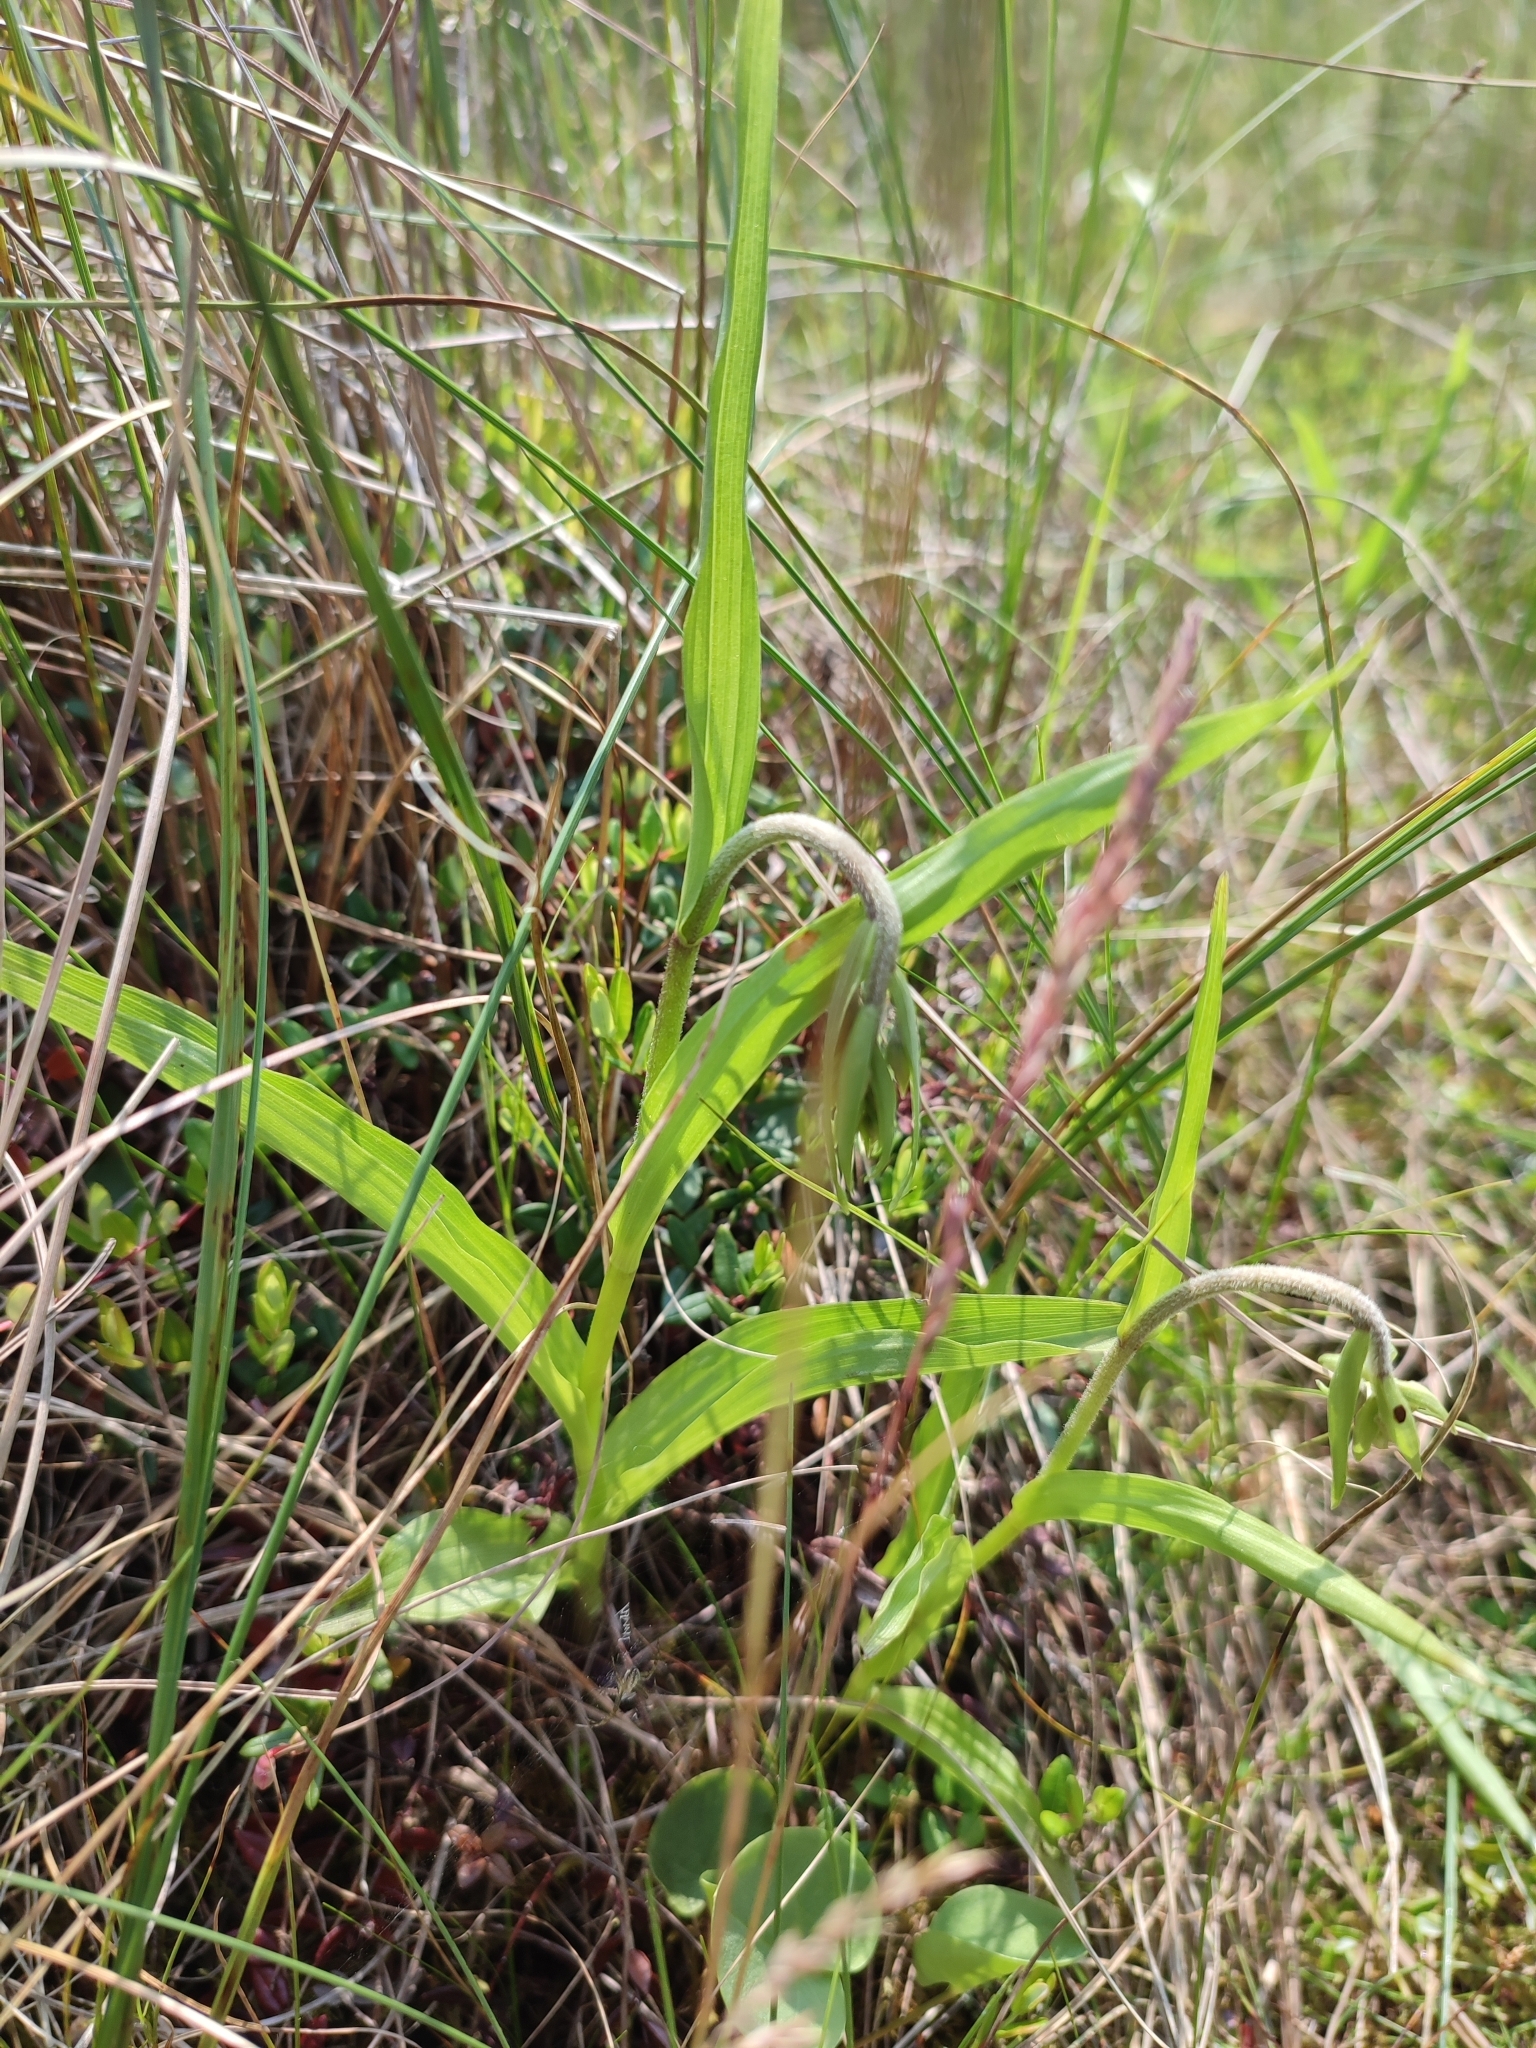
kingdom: Plantae
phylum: Tracheophyta
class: Liliopsida
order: Asparagales
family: Orchidaceae
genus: Epipactis
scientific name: Epipactis palustris
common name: Marsh helleborine
